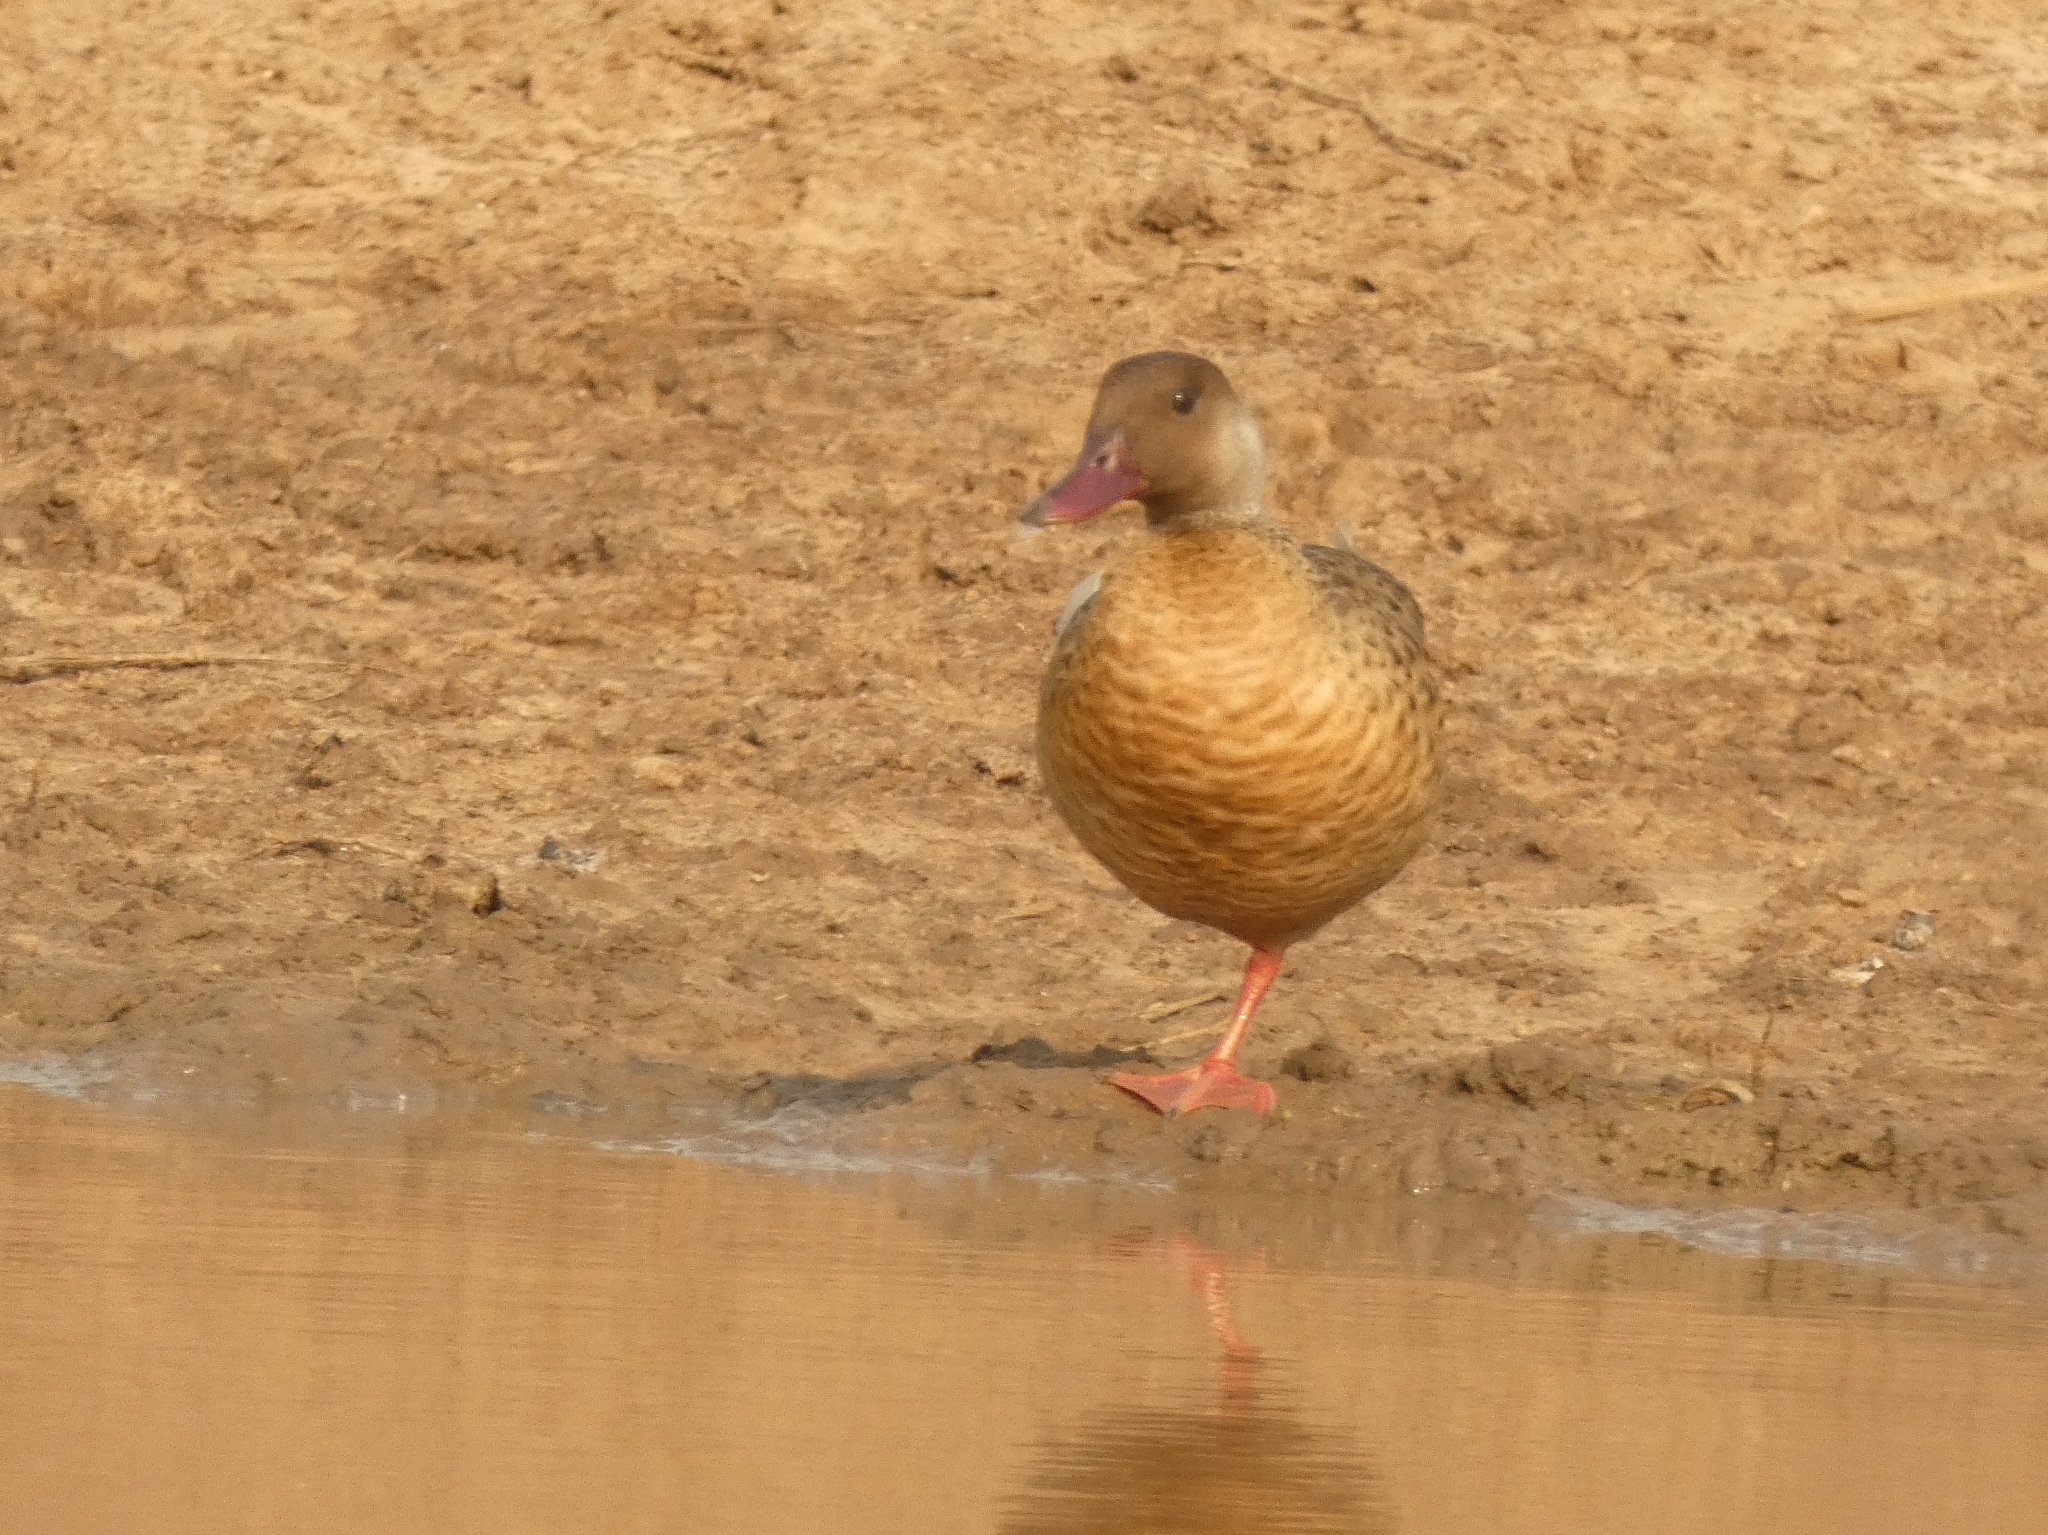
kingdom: Animalia
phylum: Chordata
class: Aves
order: Anseriformes
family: Anatidae
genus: Amazonetta
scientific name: Amazonetta brasiliensis
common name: Brazilian teal
